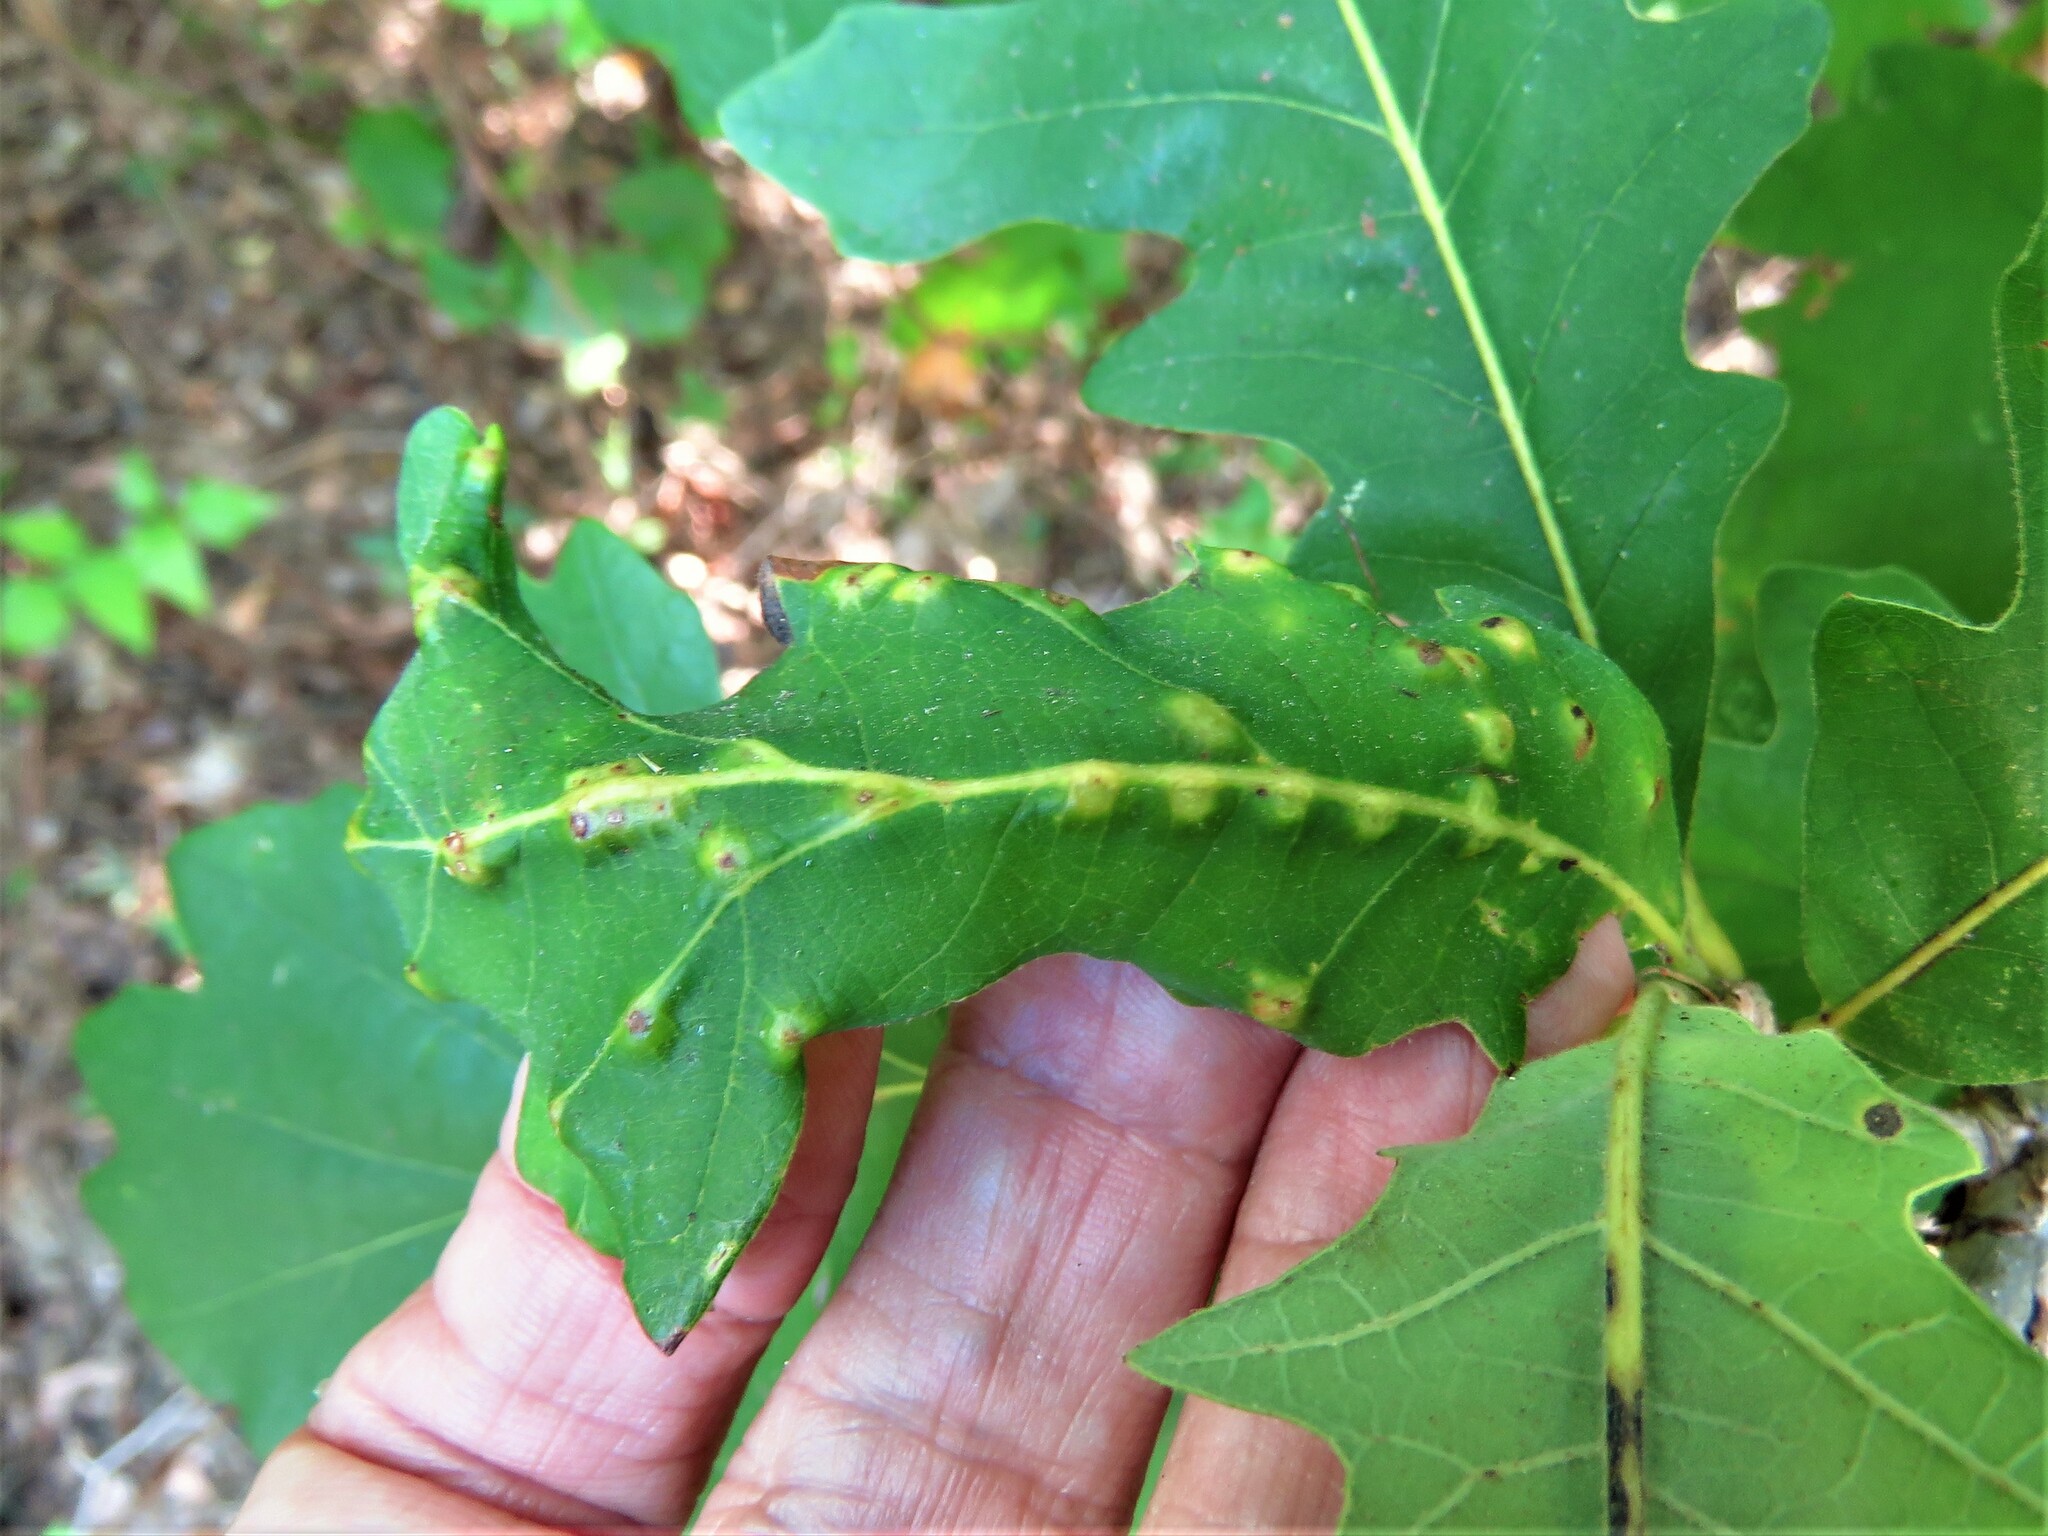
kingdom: Animalia
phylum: Arthropoda
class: Insecta
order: Hymenoptera
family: Cynipidae
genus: Neuroterus
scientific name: Neuroterus quercusverrucarum
